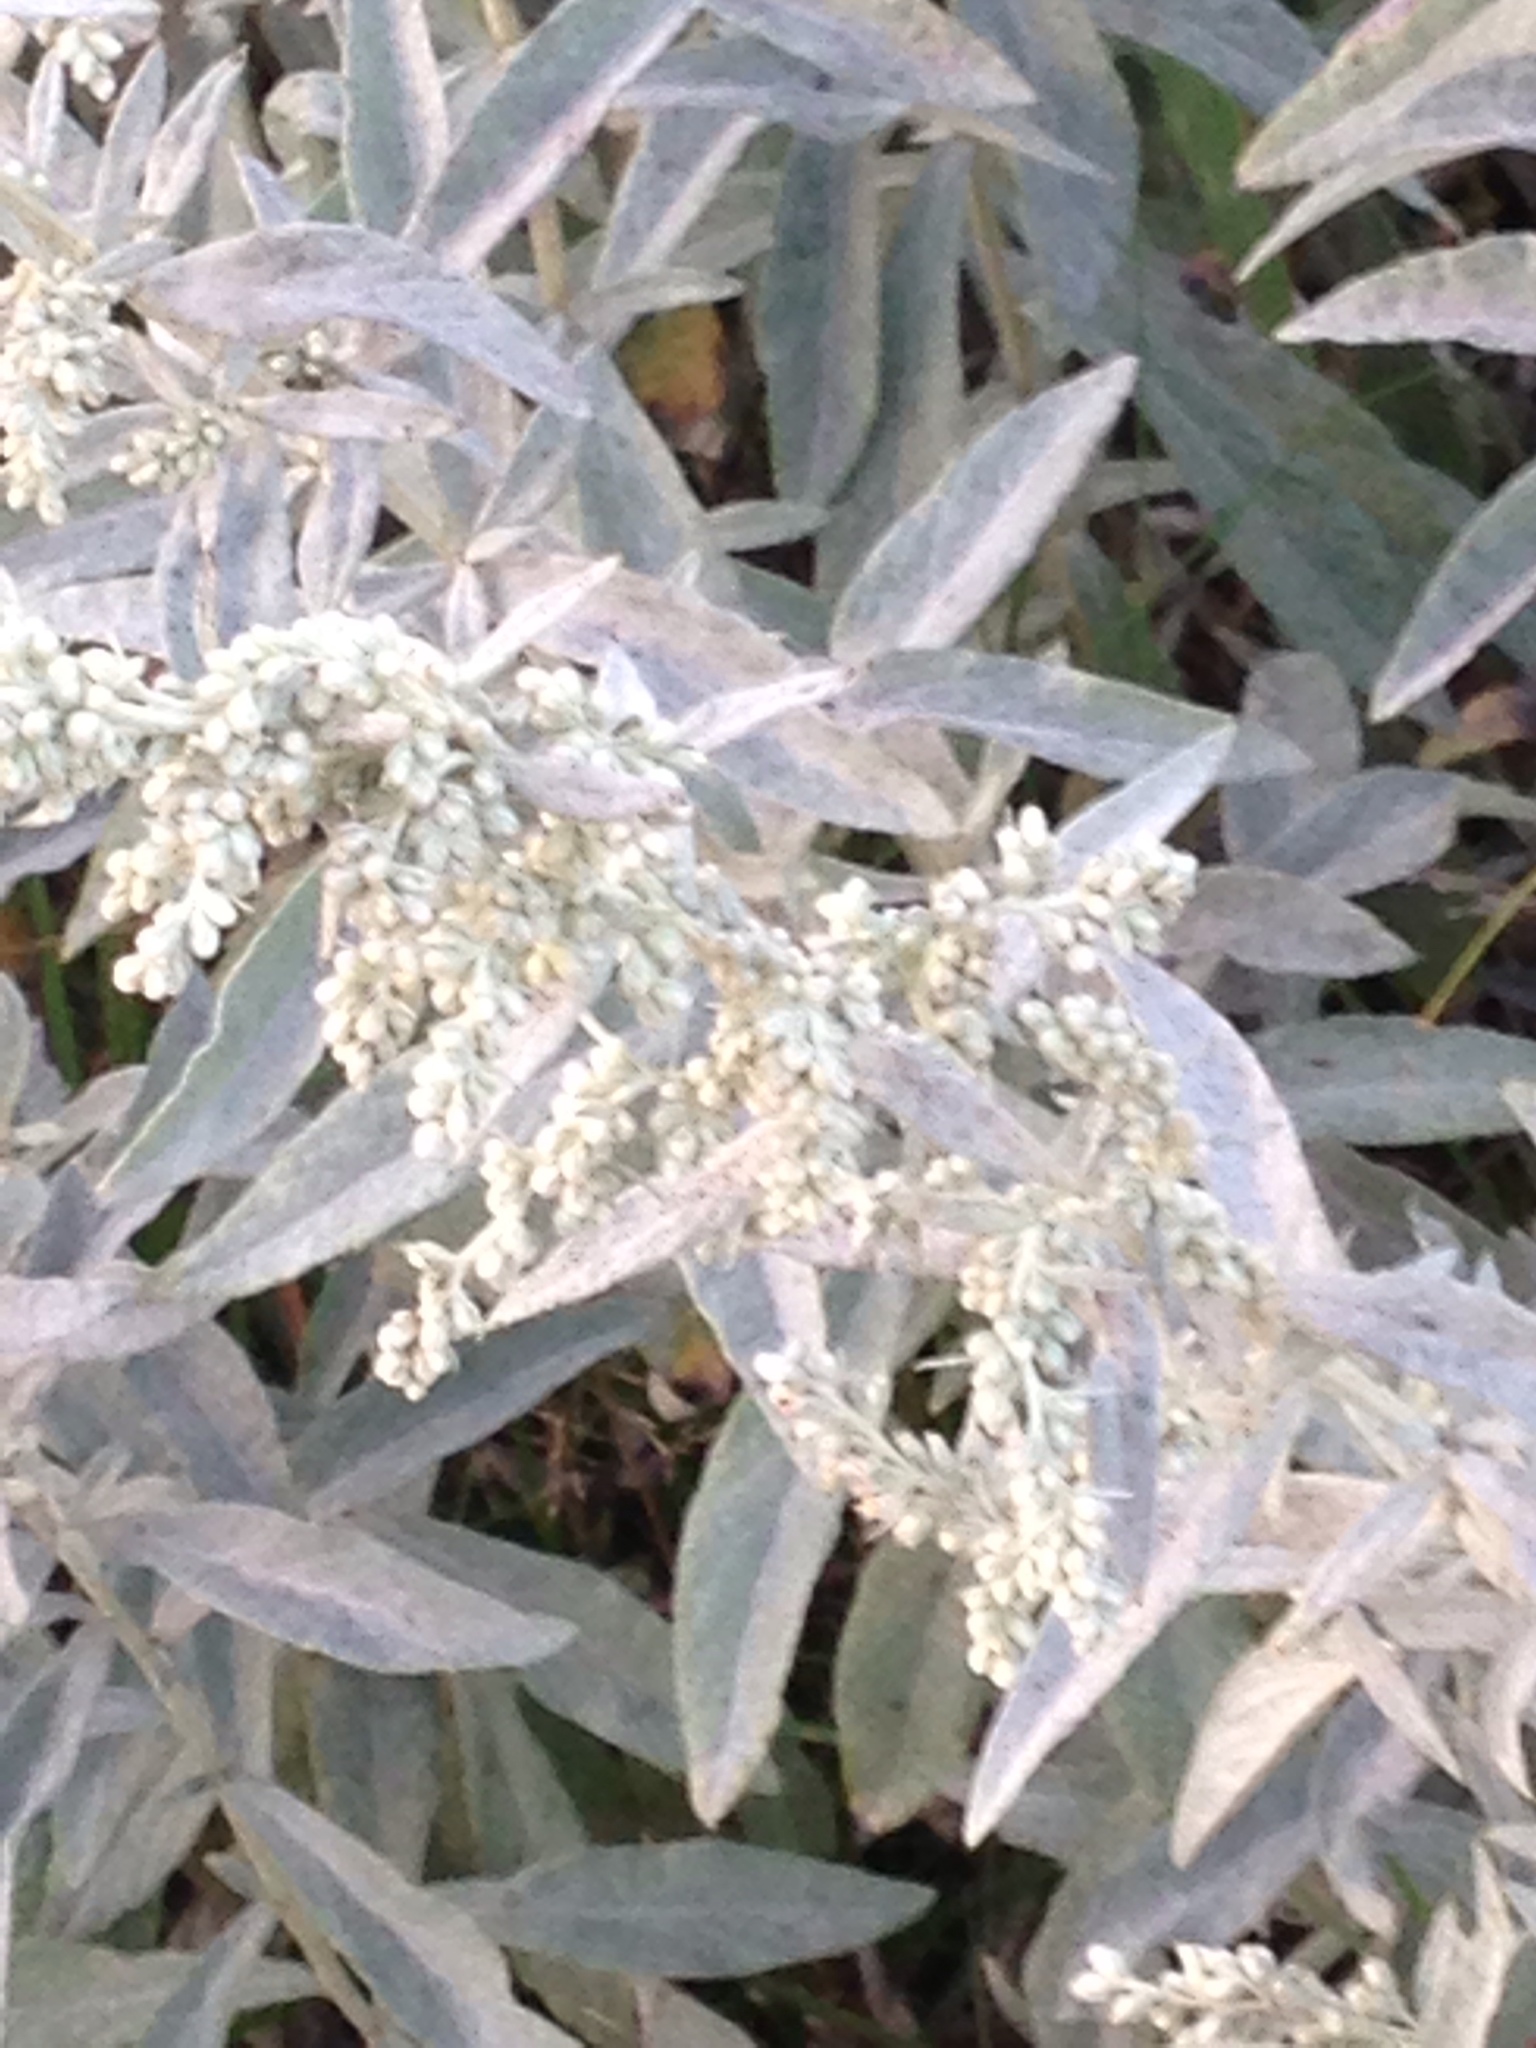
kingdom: Plantae
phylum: Tracheophyta
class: Magnoliopsida
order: Asterales
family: Asteraceae
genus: Artemisia
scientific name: Artemisia ludoviciana
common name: Western mugwort
